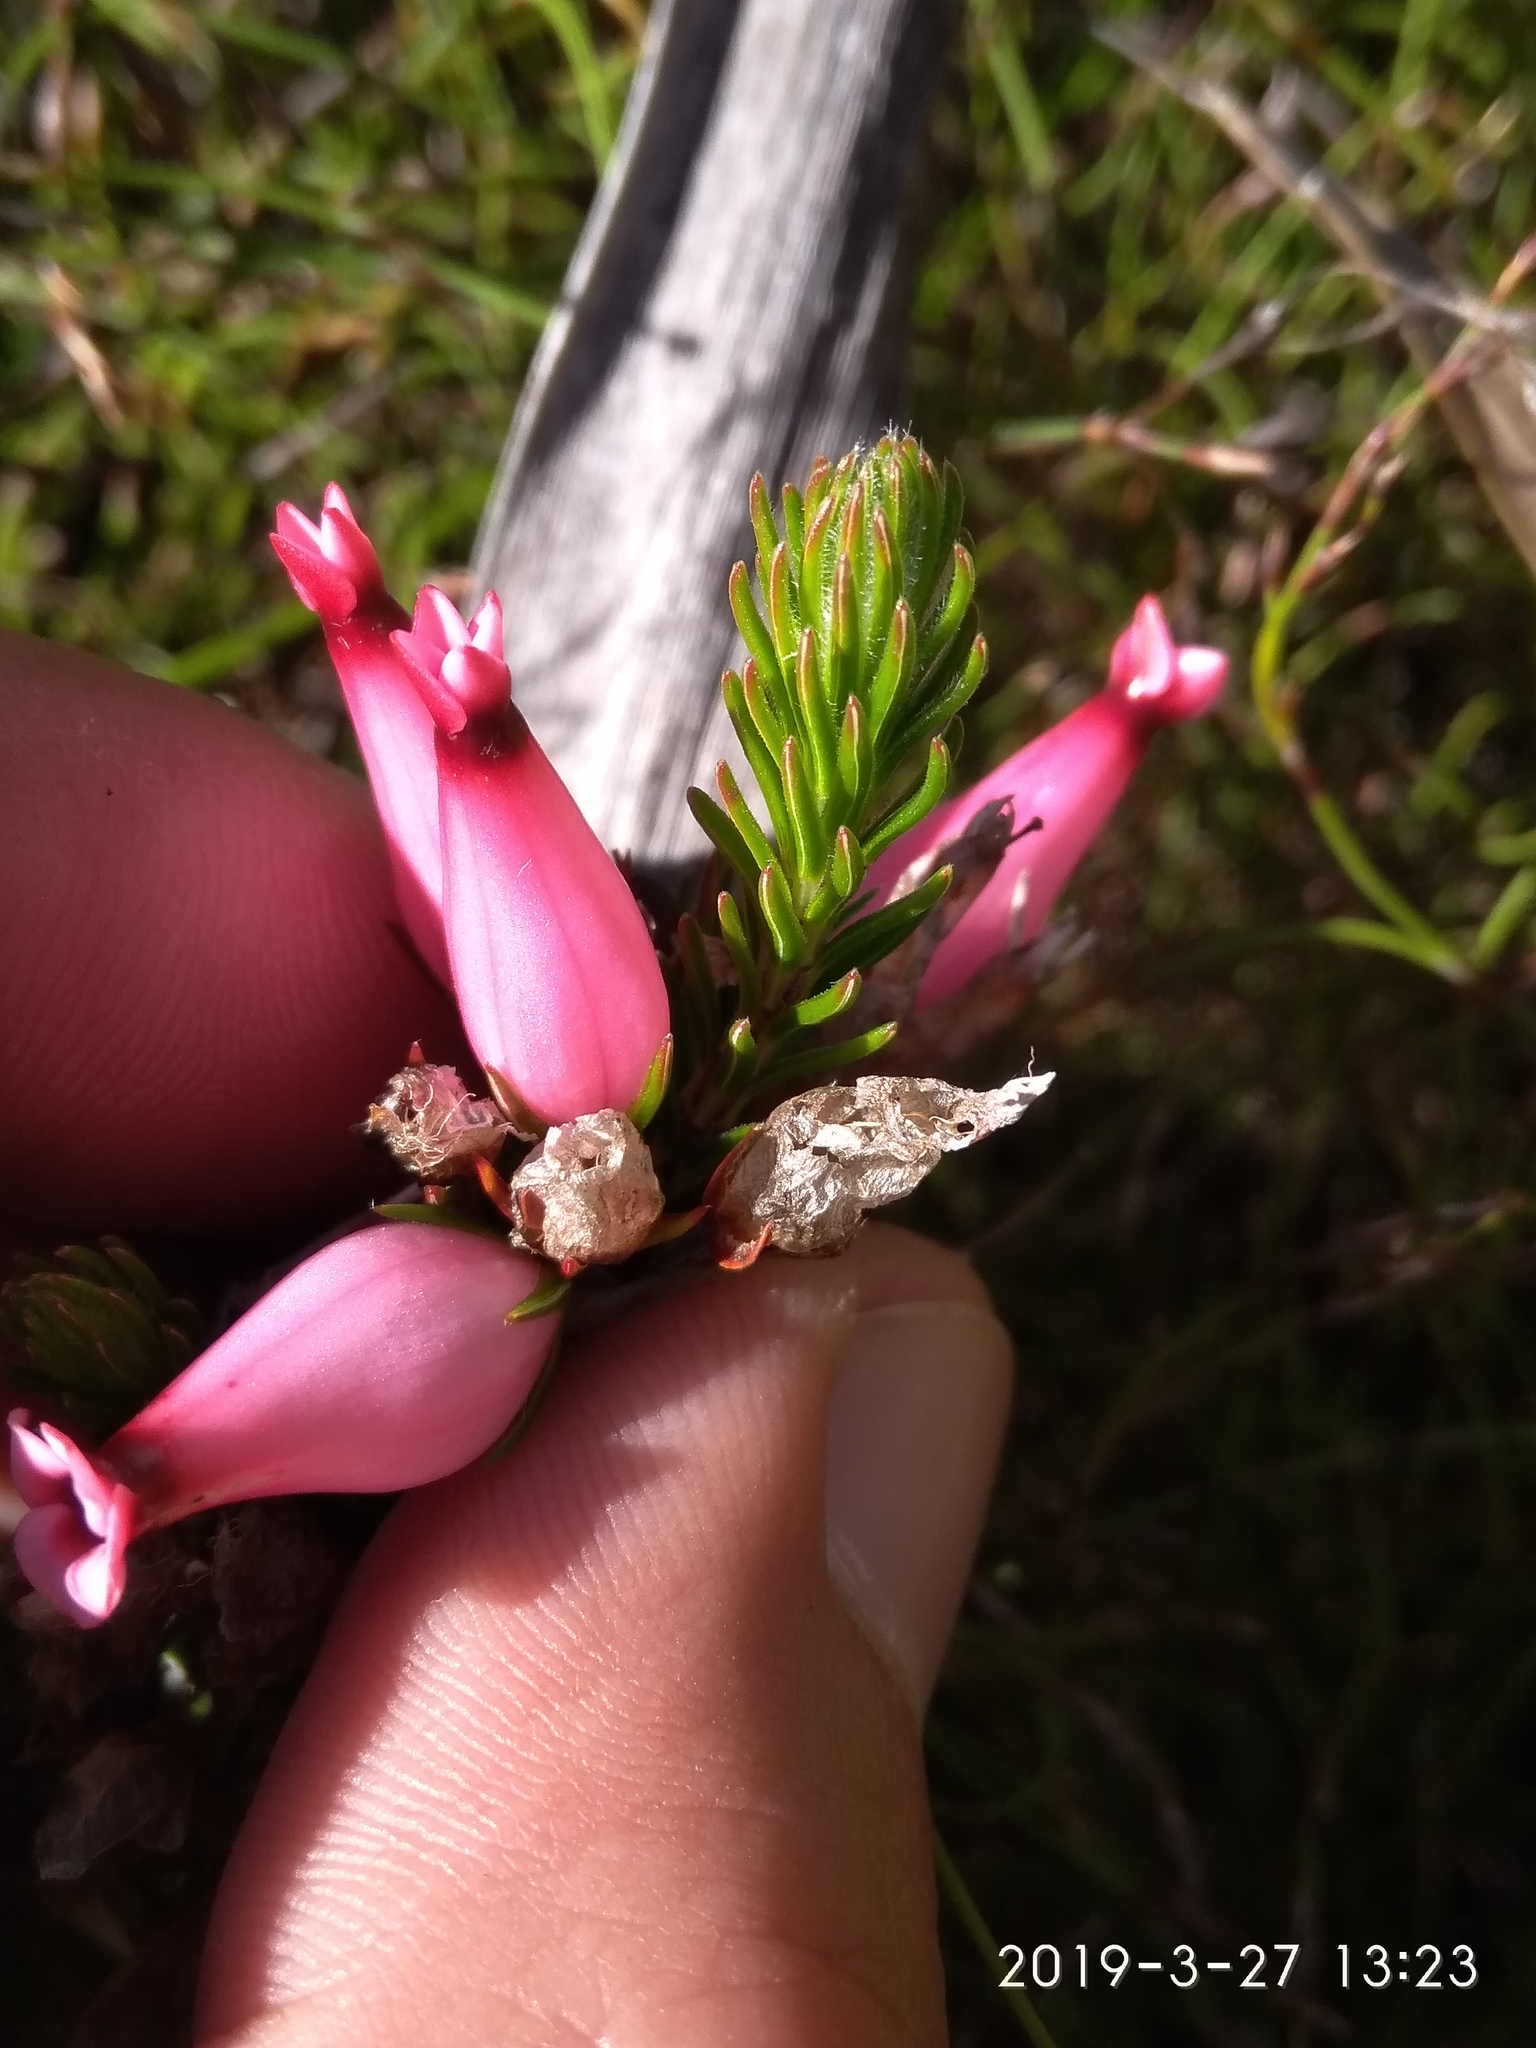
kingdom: Plantae
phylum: Tracheophyta
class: Magnoliopsida
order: Ericales
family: Ericaceae
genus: Erica
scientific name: Erica ventricosa
